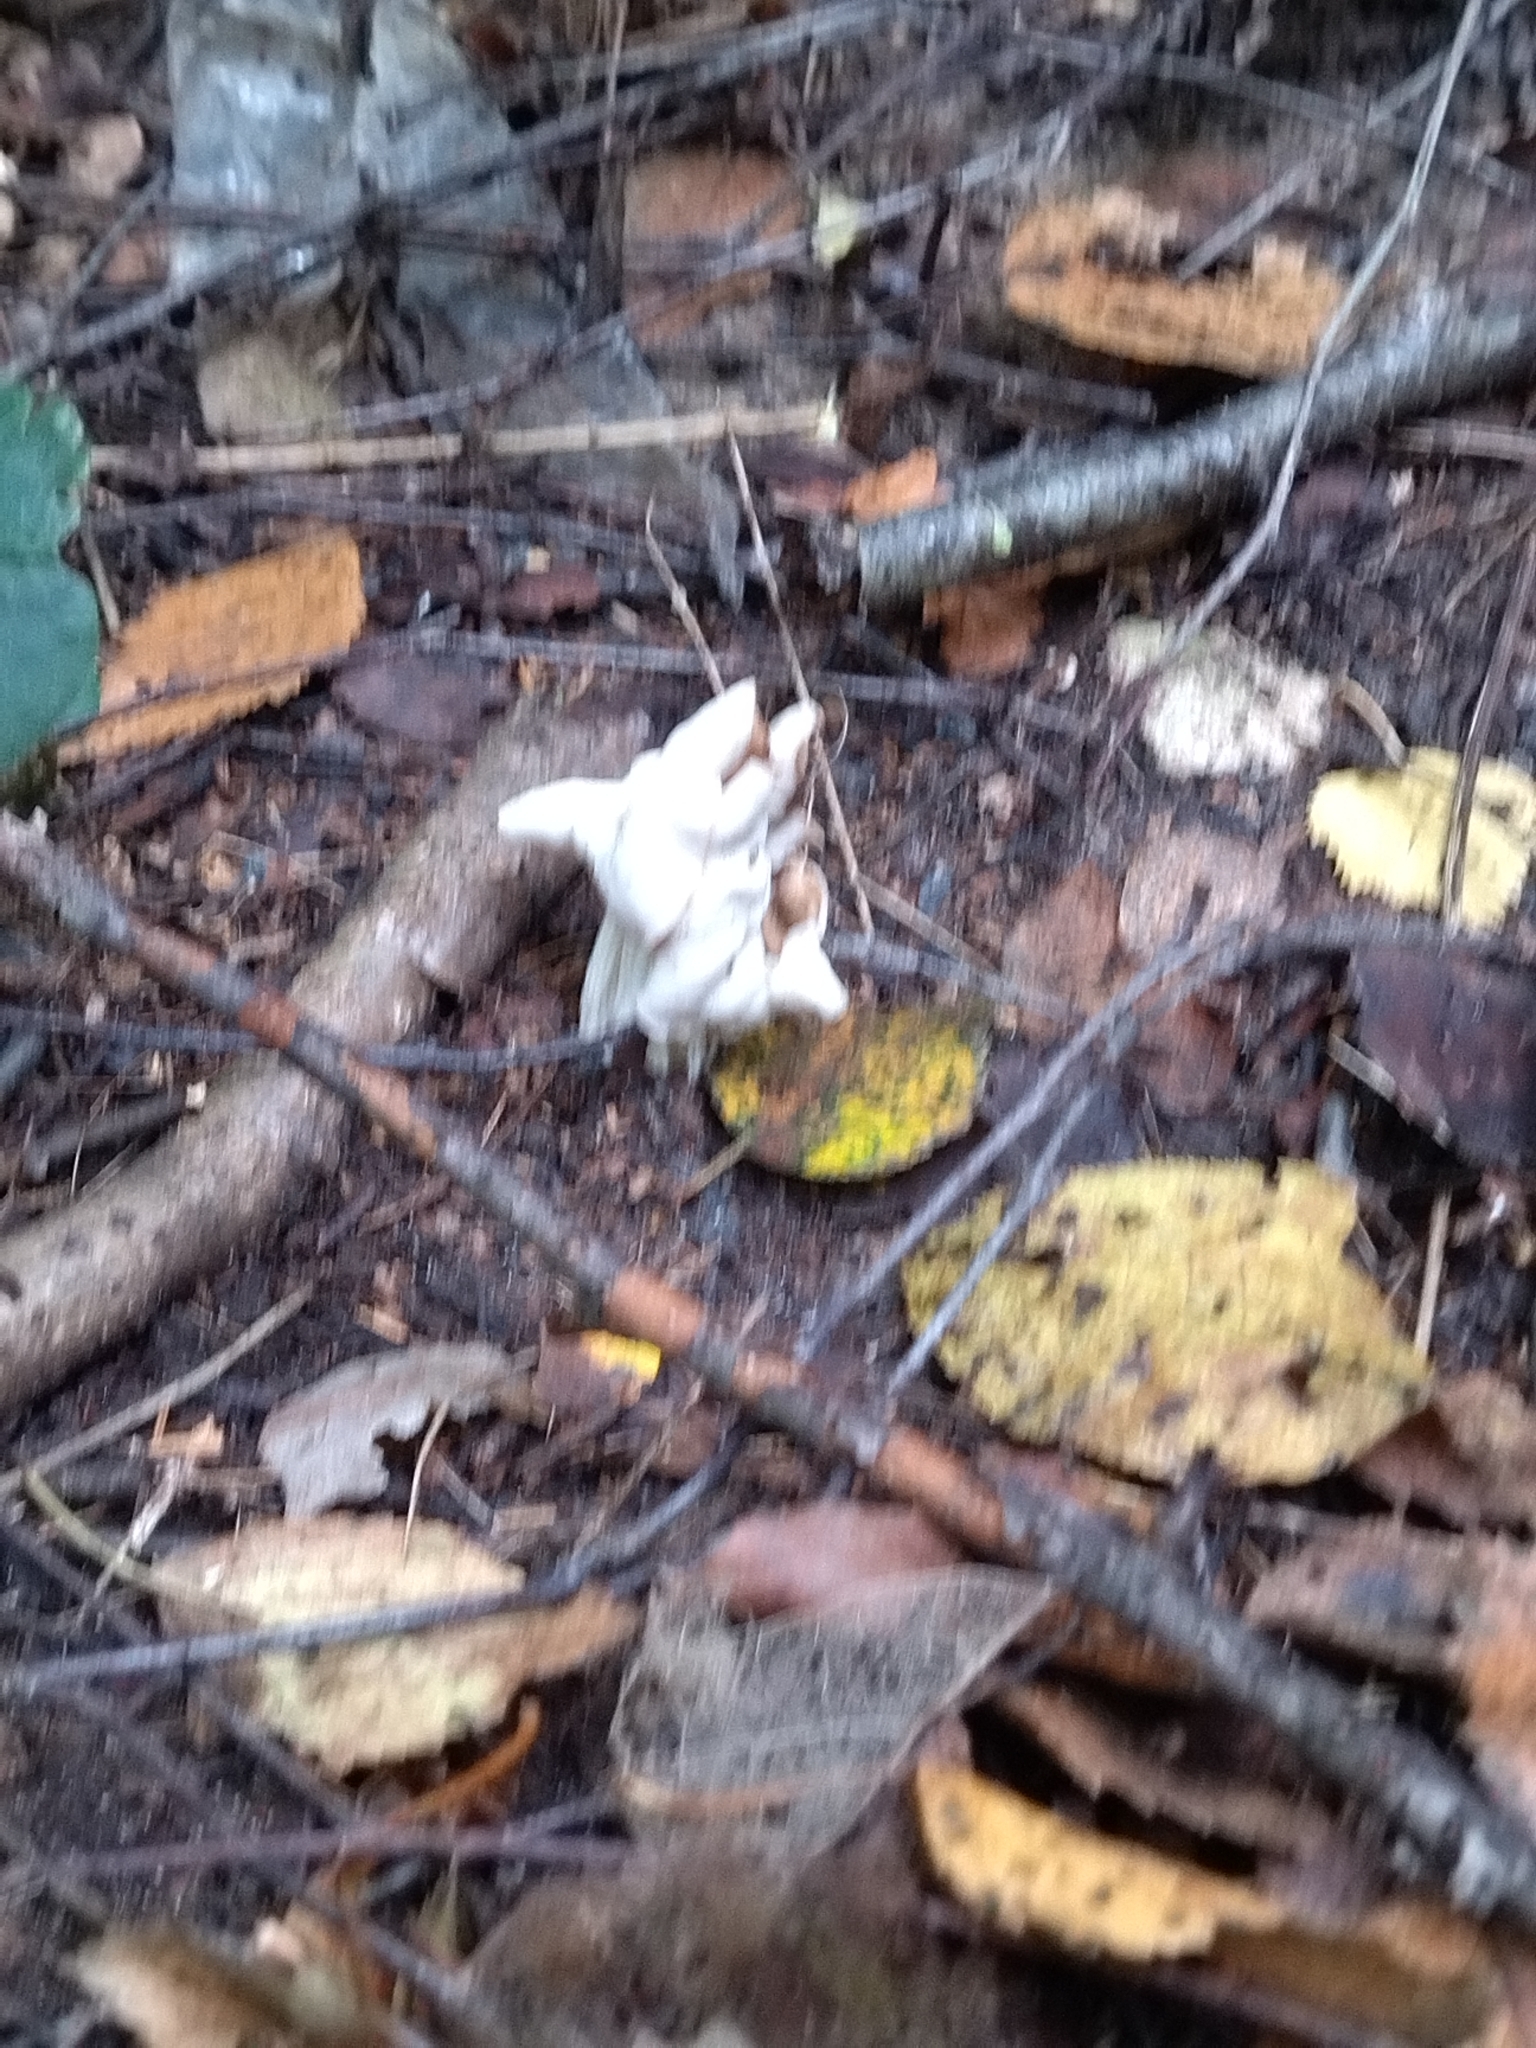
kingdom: Fungi
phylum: Ascomycota
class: Pezizomycetes
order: Pezizales
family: Helvellaceae
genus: Helvella
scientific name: Helvella crispa
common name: White saddle
